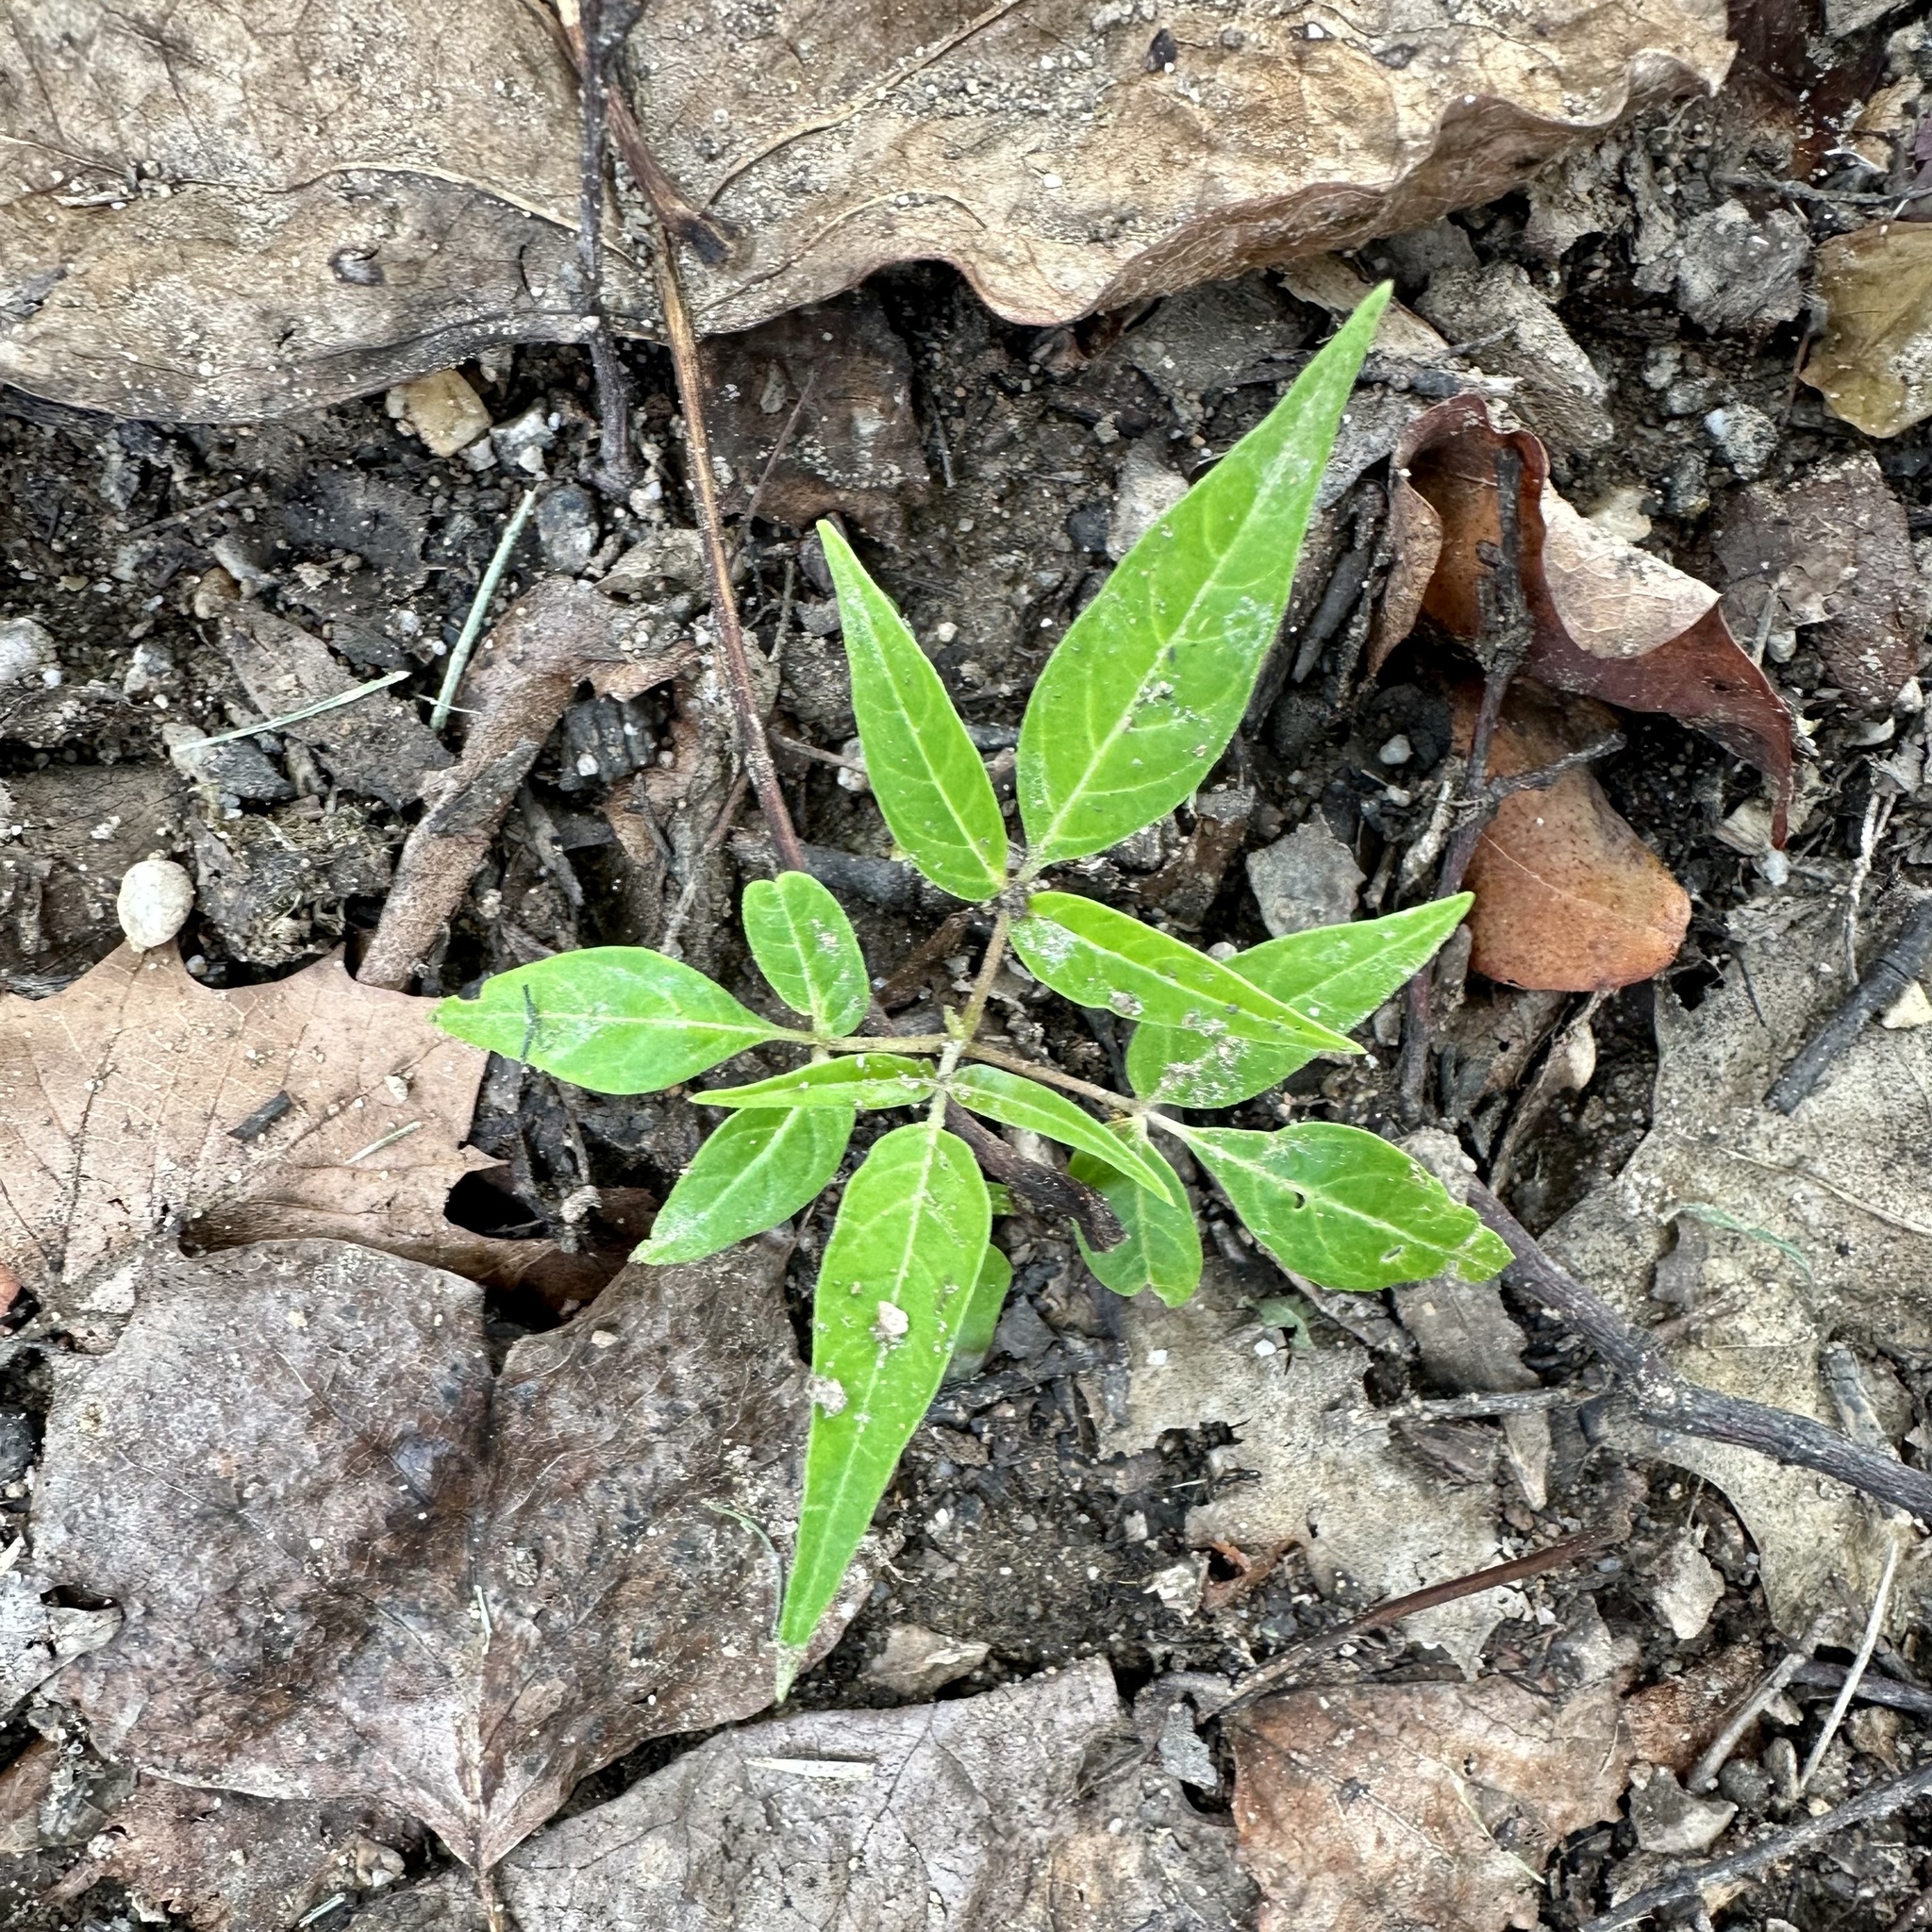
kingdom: Plantae
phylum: Tracheophyta
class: Magnoliopsida
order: Sapindales
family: Simaroubaceae
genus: Ailanthus
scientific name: Ailanthus altissima
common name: Tree-of-heaven
